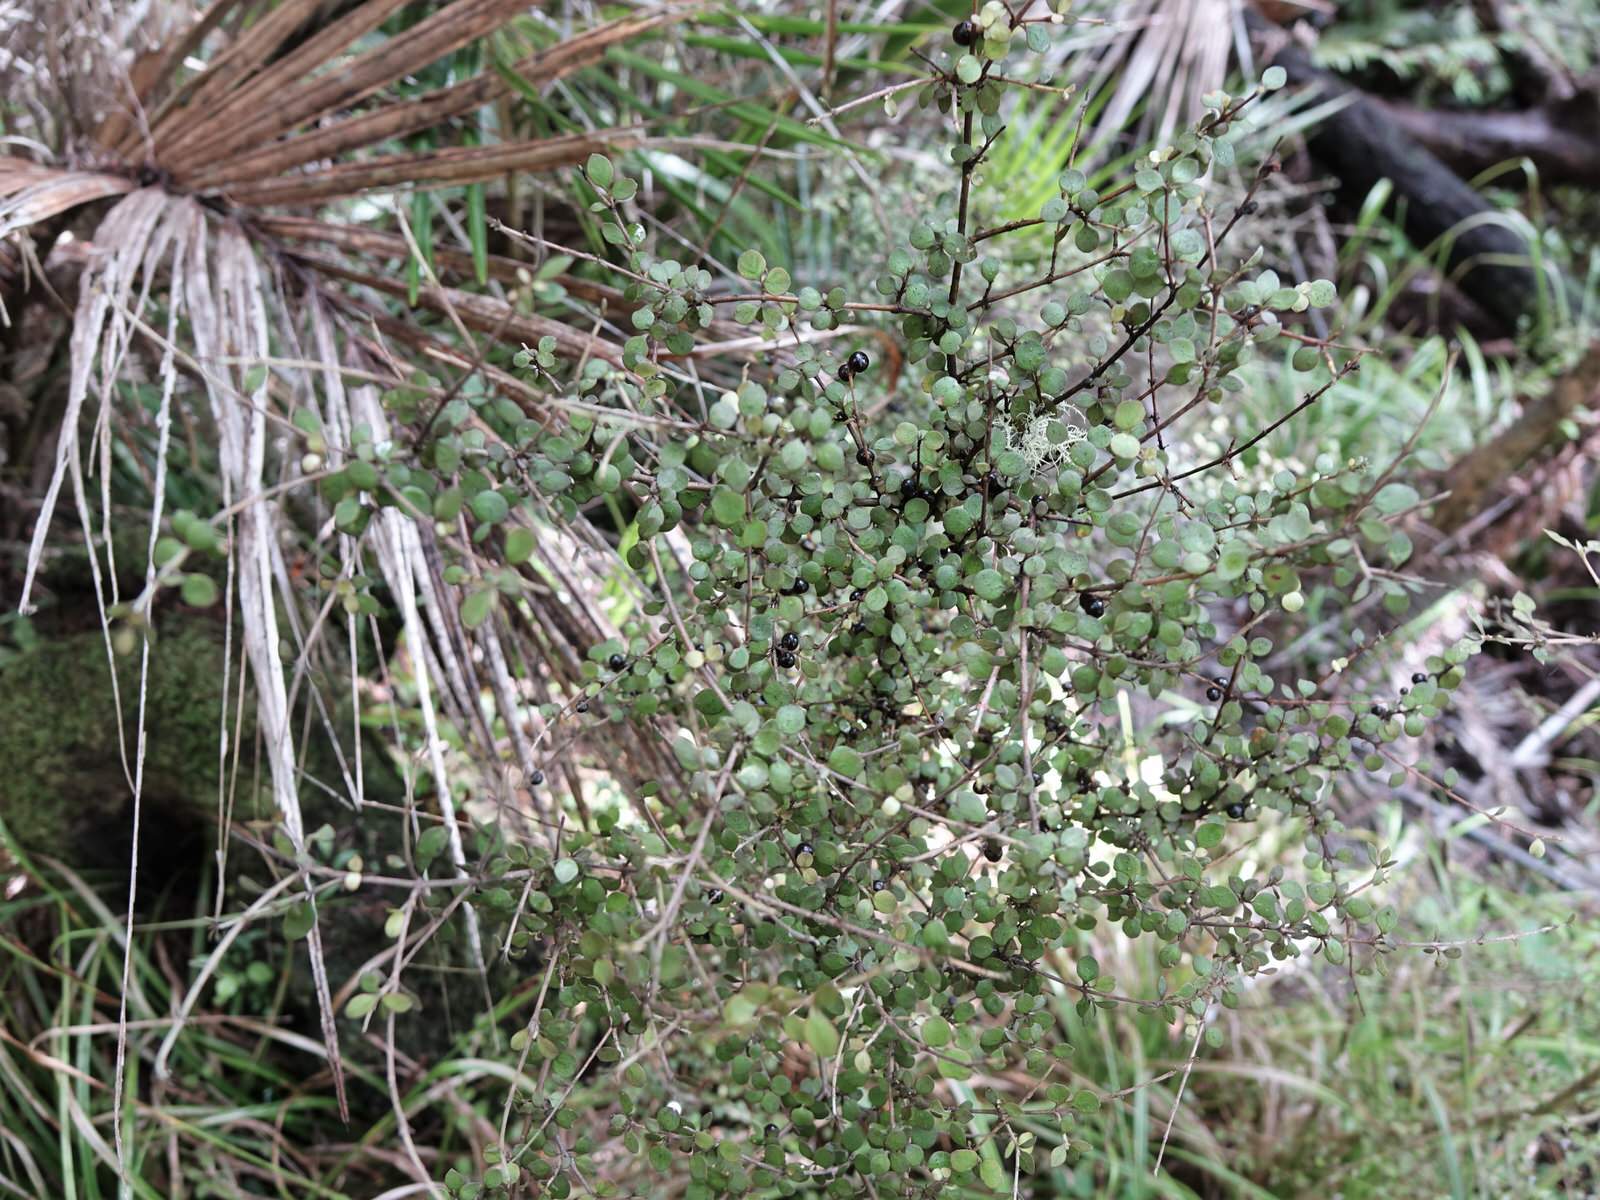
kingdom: Plantae
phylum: Tracheophyta
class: Magnoliopsida
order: Gentianales
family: Rubiaceae
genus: Coprosma
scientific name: Coprosma rhamnoides
